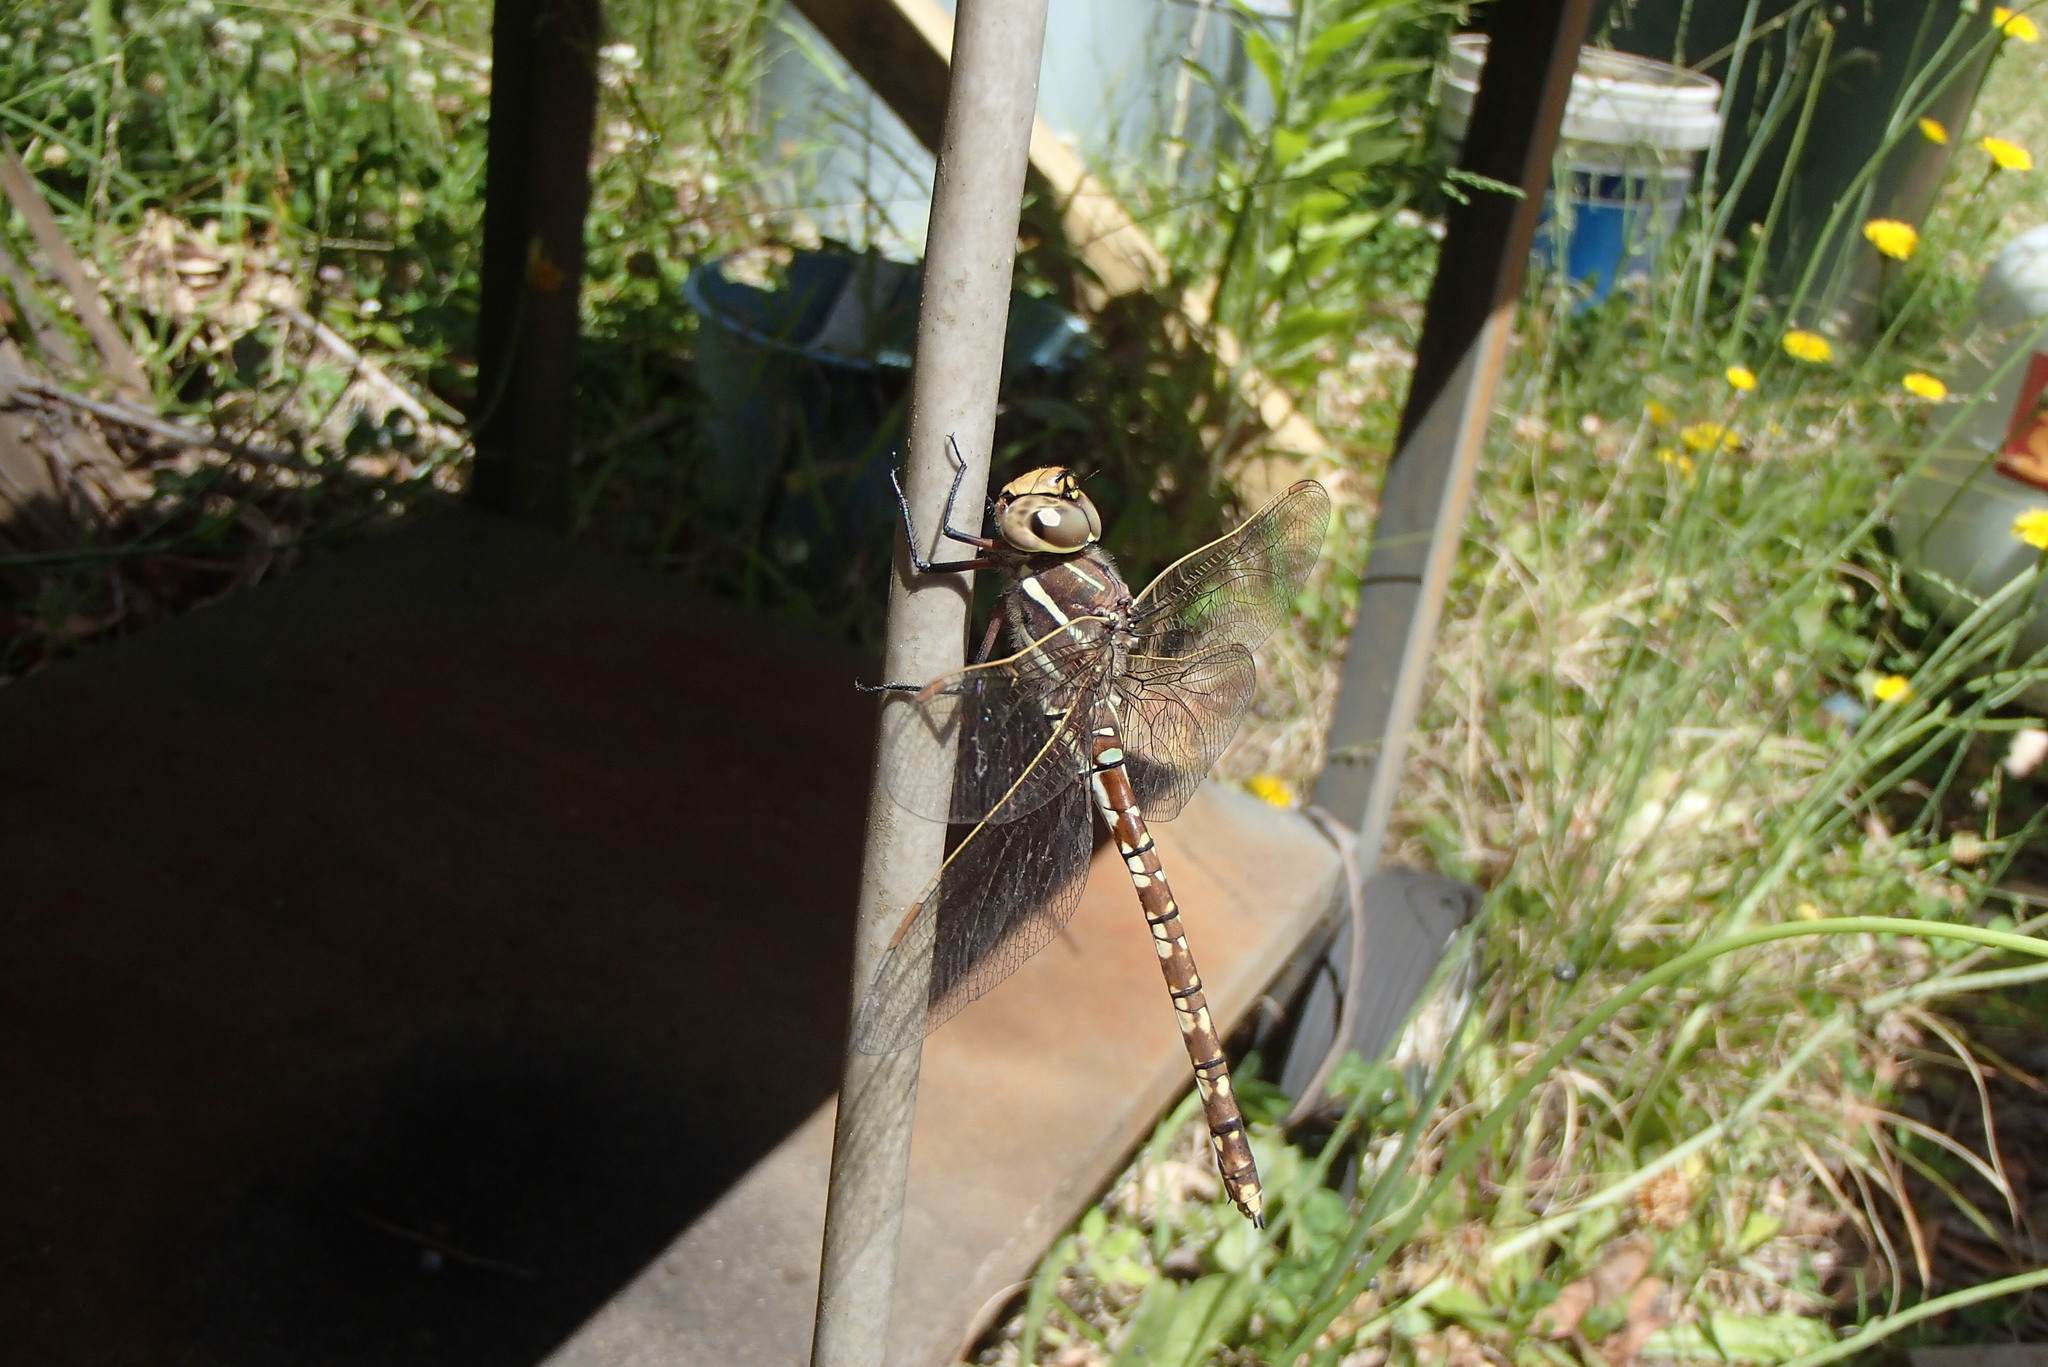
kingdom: Animalia
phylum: Arthropoda
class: Insecta
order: Odonata
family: Aeshnidae
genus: Aeshna
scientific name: Aeshna brevistyla
